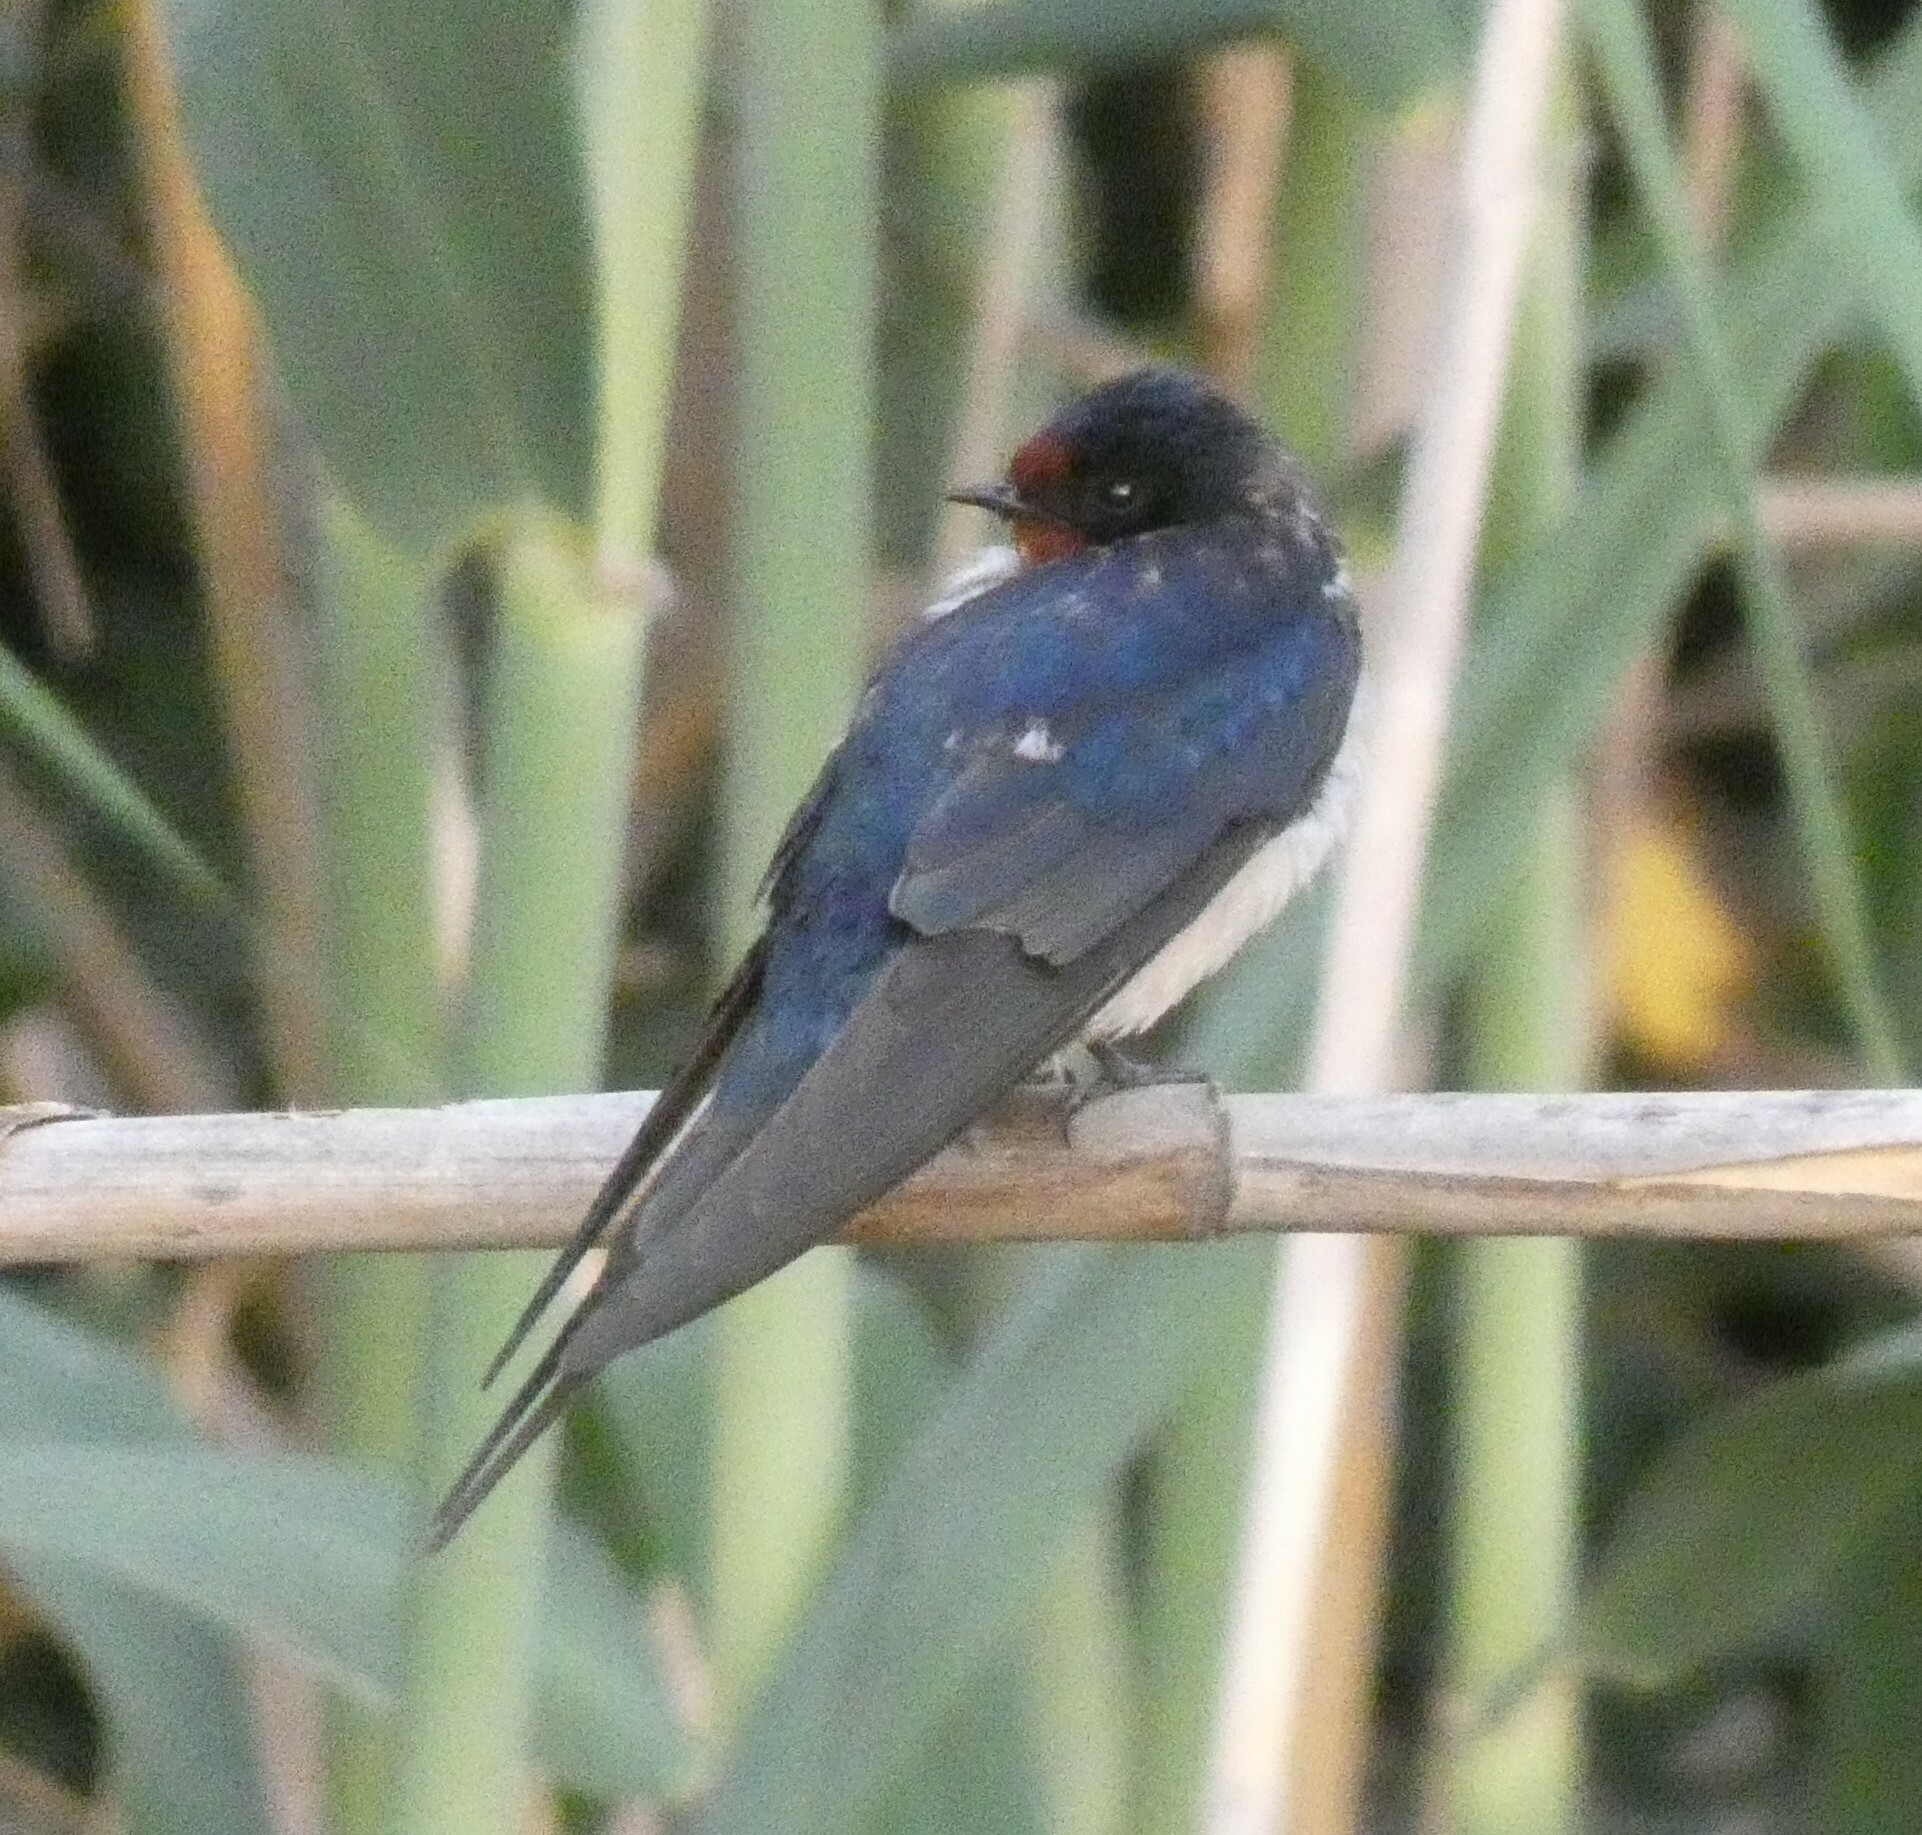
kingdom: Animalia
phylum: Chordata
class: Aves
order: Passeriformes
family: Hirundinidae
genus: Hirundo
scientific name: Hirundo rustica
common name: Barn swallow
